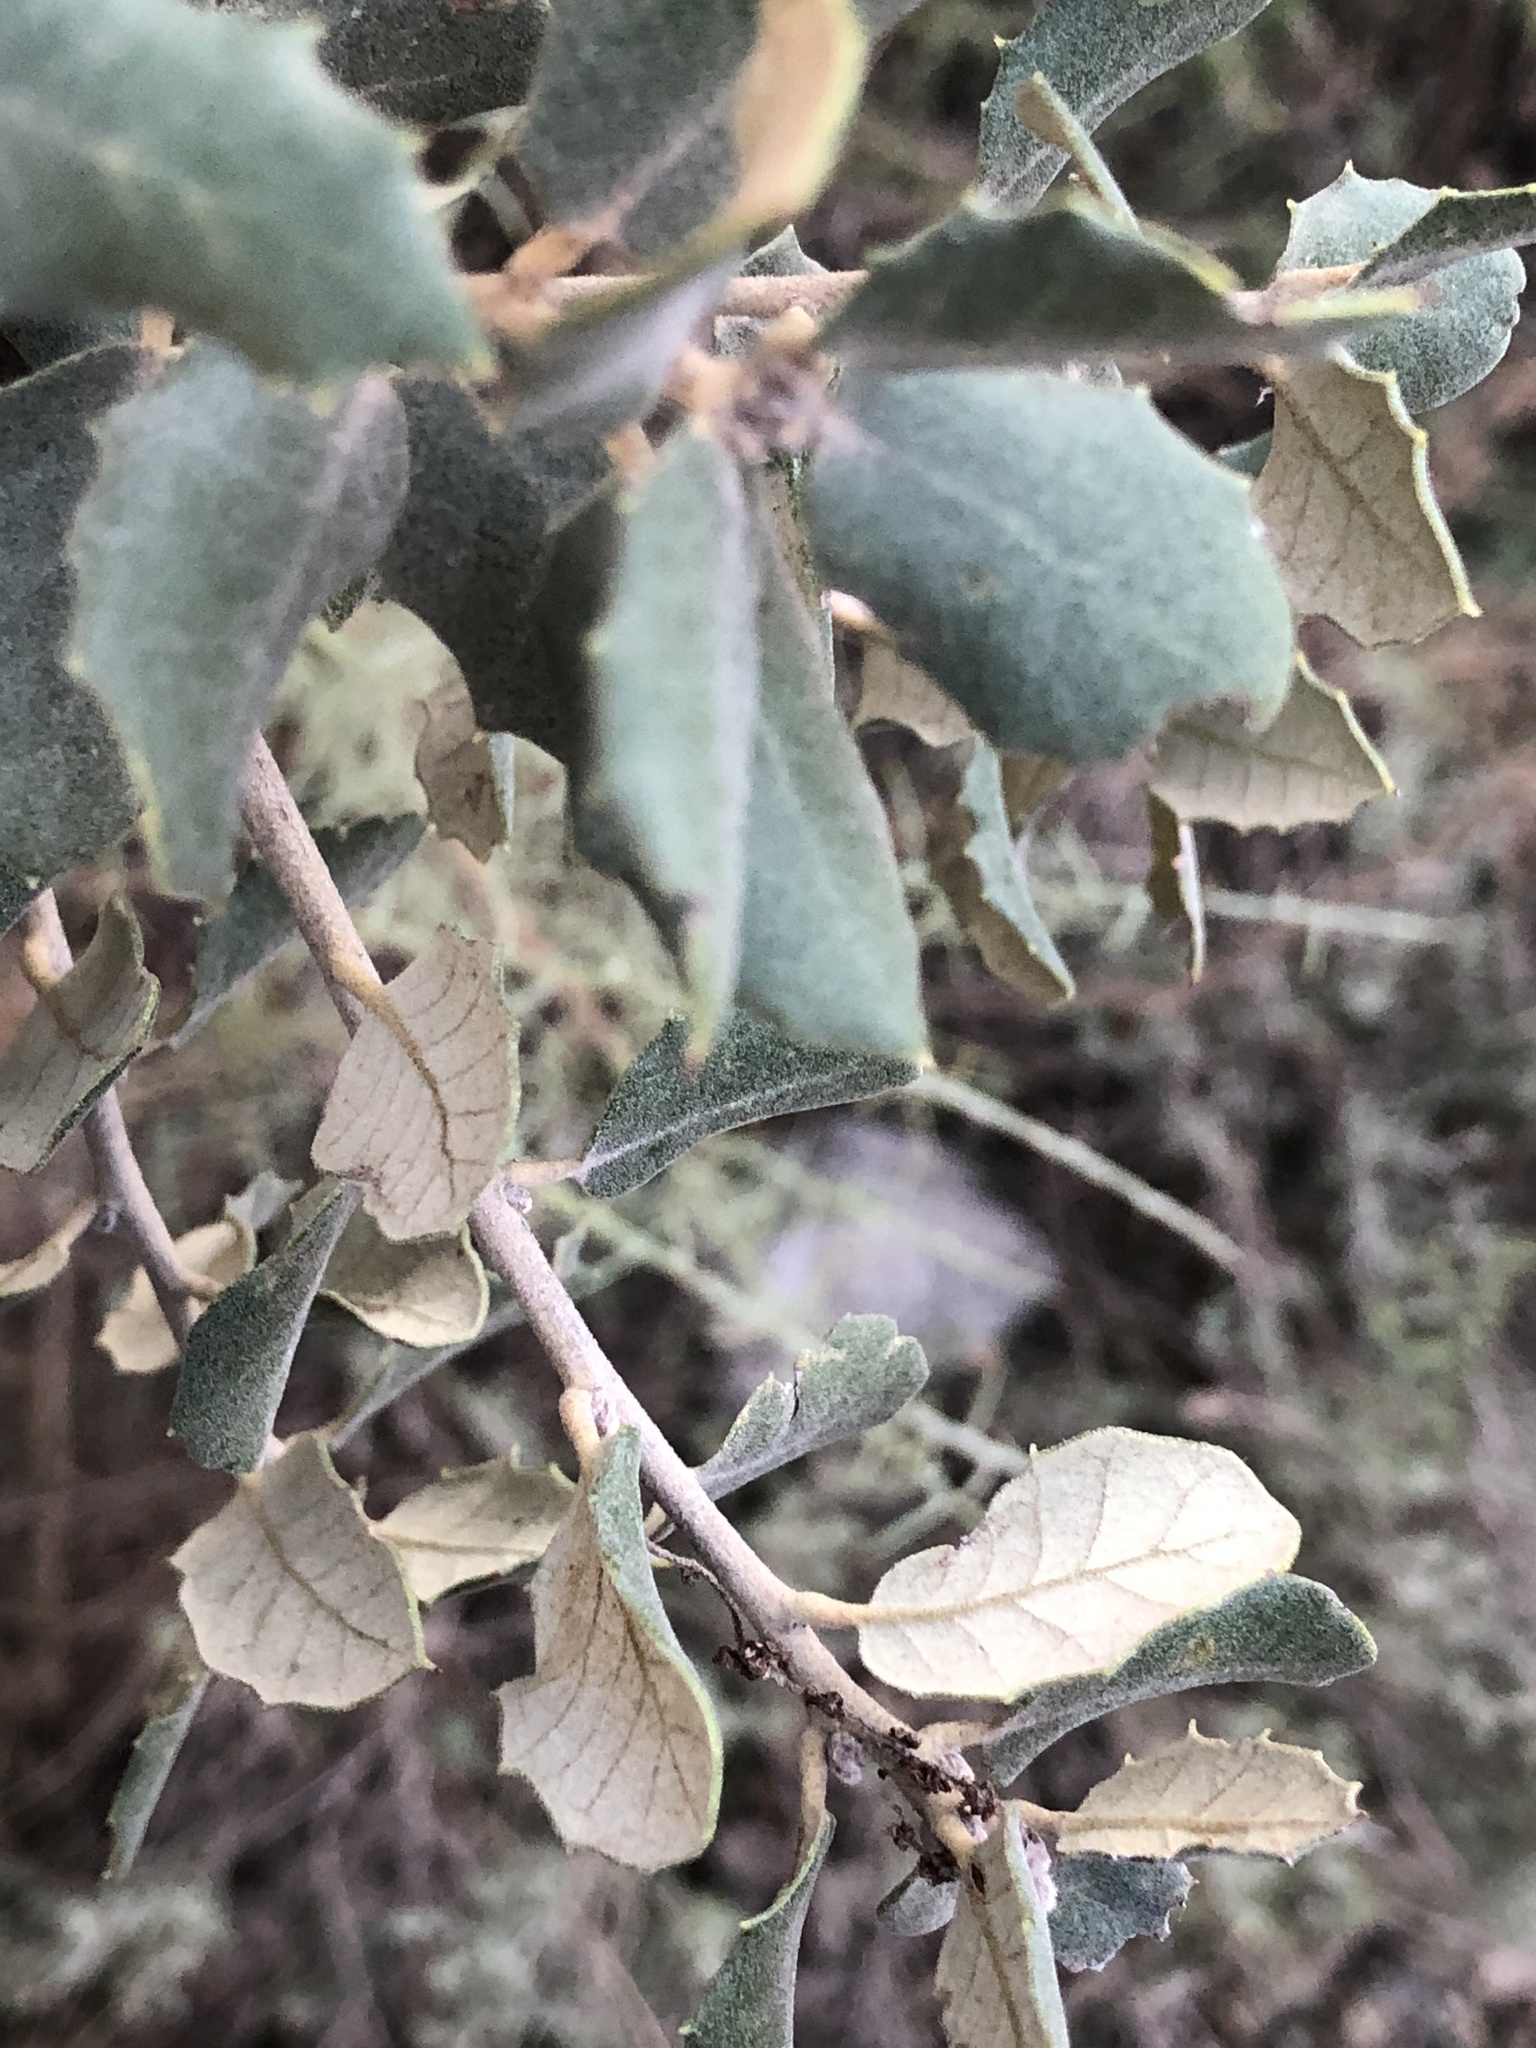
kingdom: Plantae
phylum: Tracheophyta
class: Magnoliopsida
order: Fagales
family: Fagaceae
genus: Quercus
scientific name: Quercus rotundifolia
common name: Holm oak
